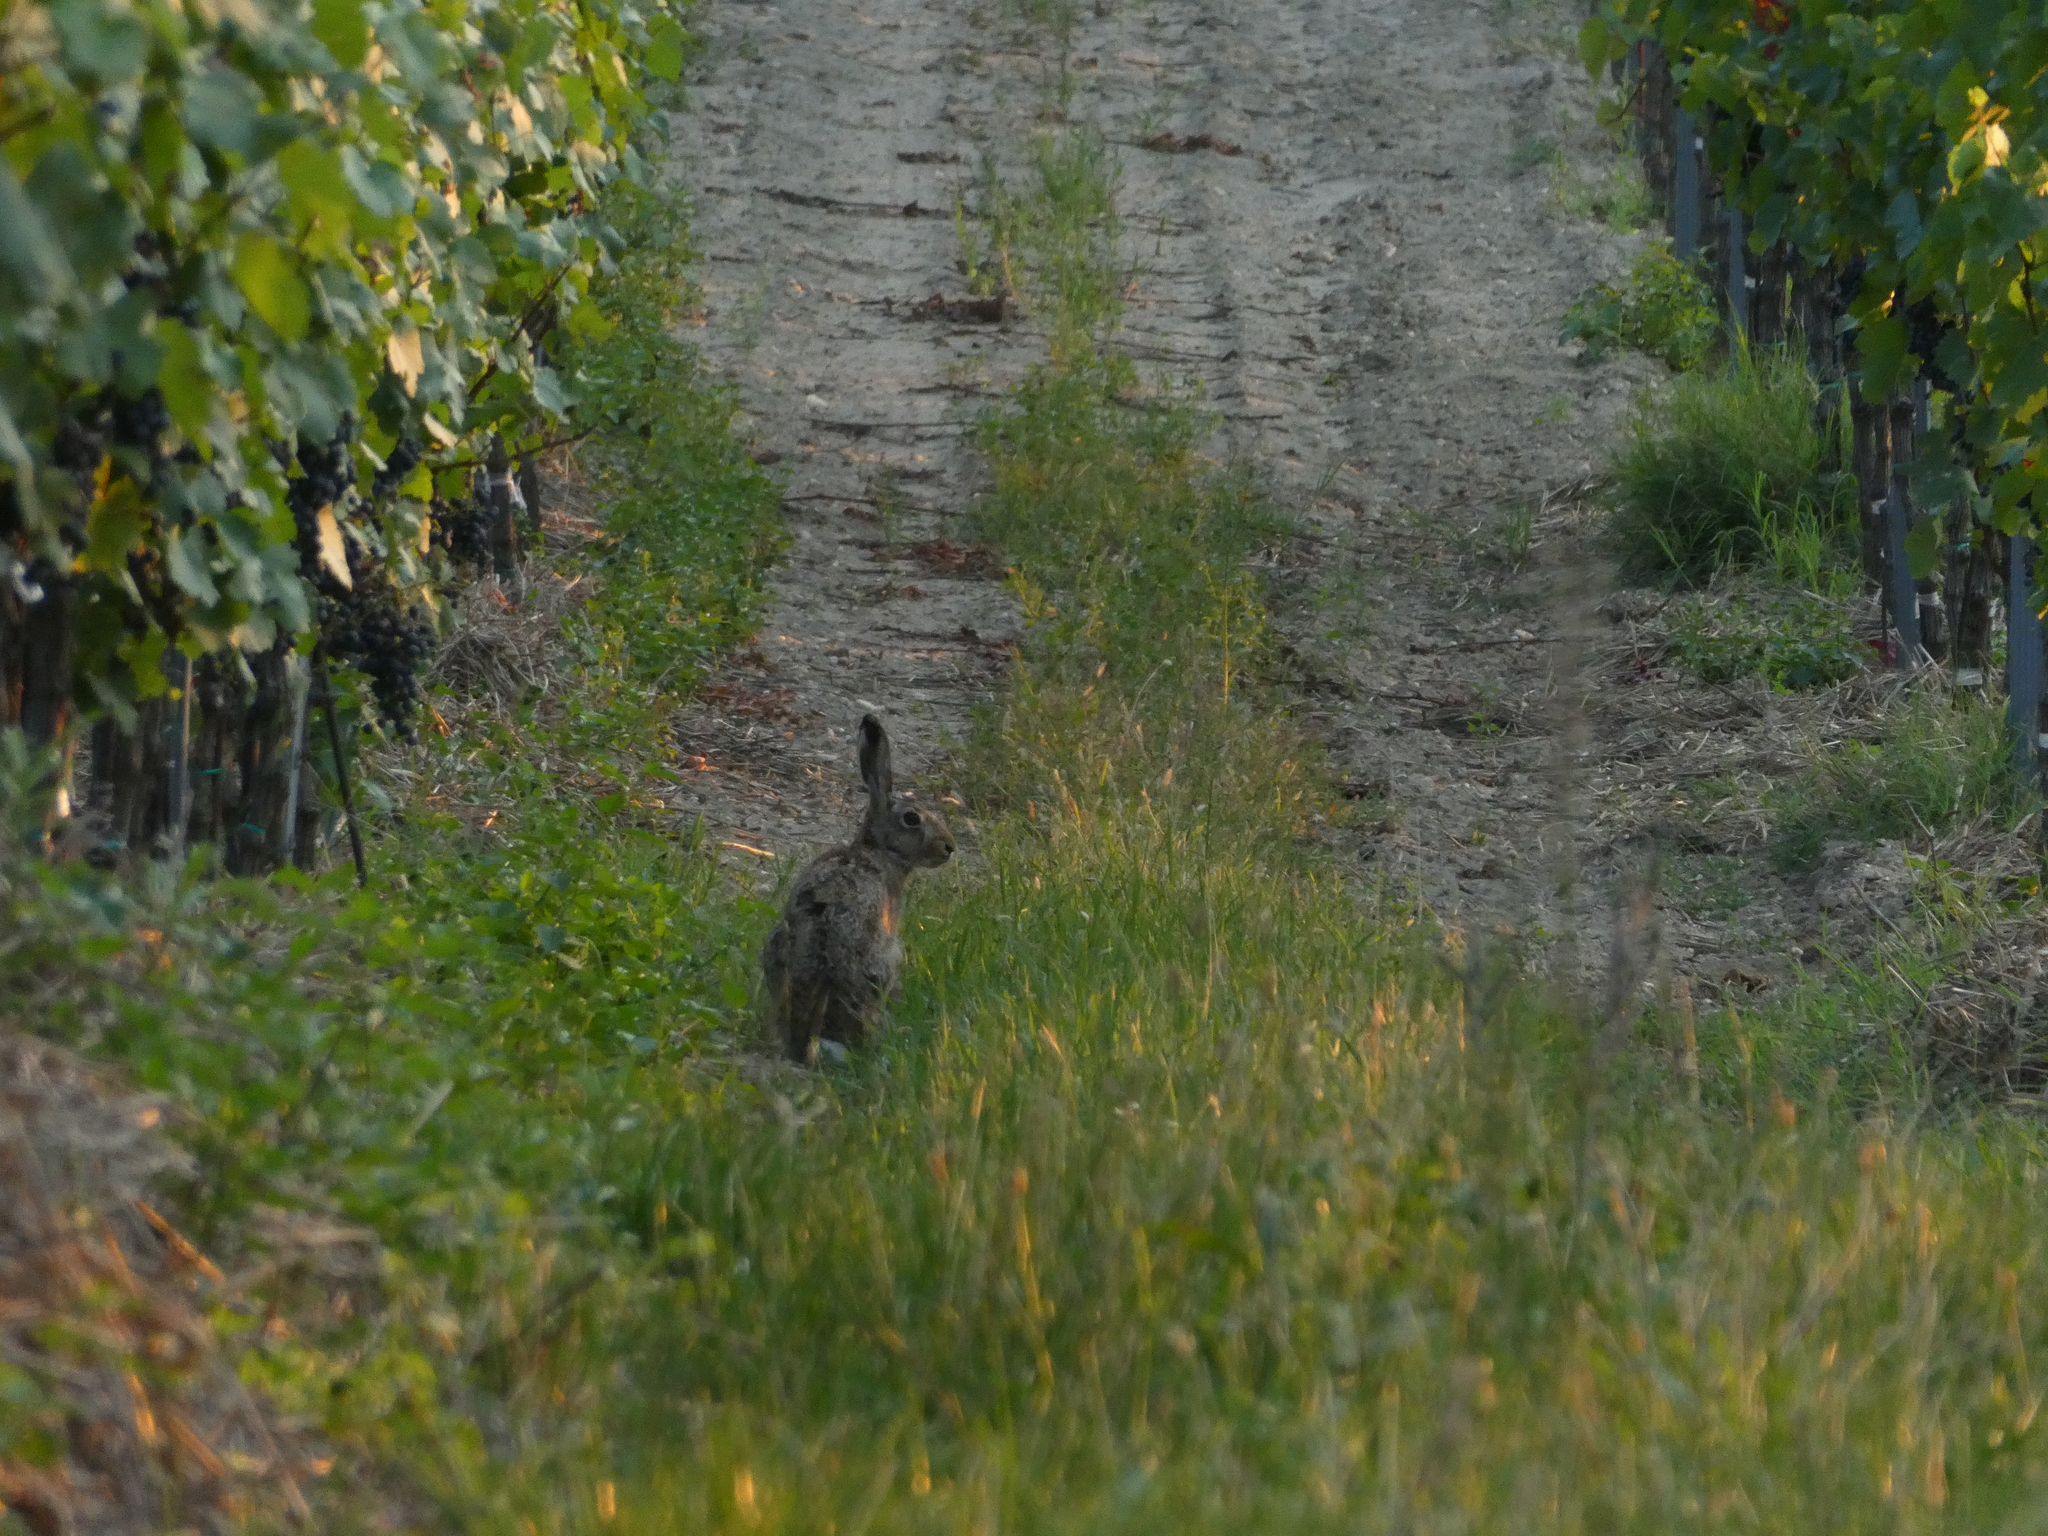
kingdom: Animalia
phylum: Chordata
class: Mammalia
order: Lagomorpha
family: Leporidae
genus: Lepus
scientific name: Lepus europaeus
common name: European hare
